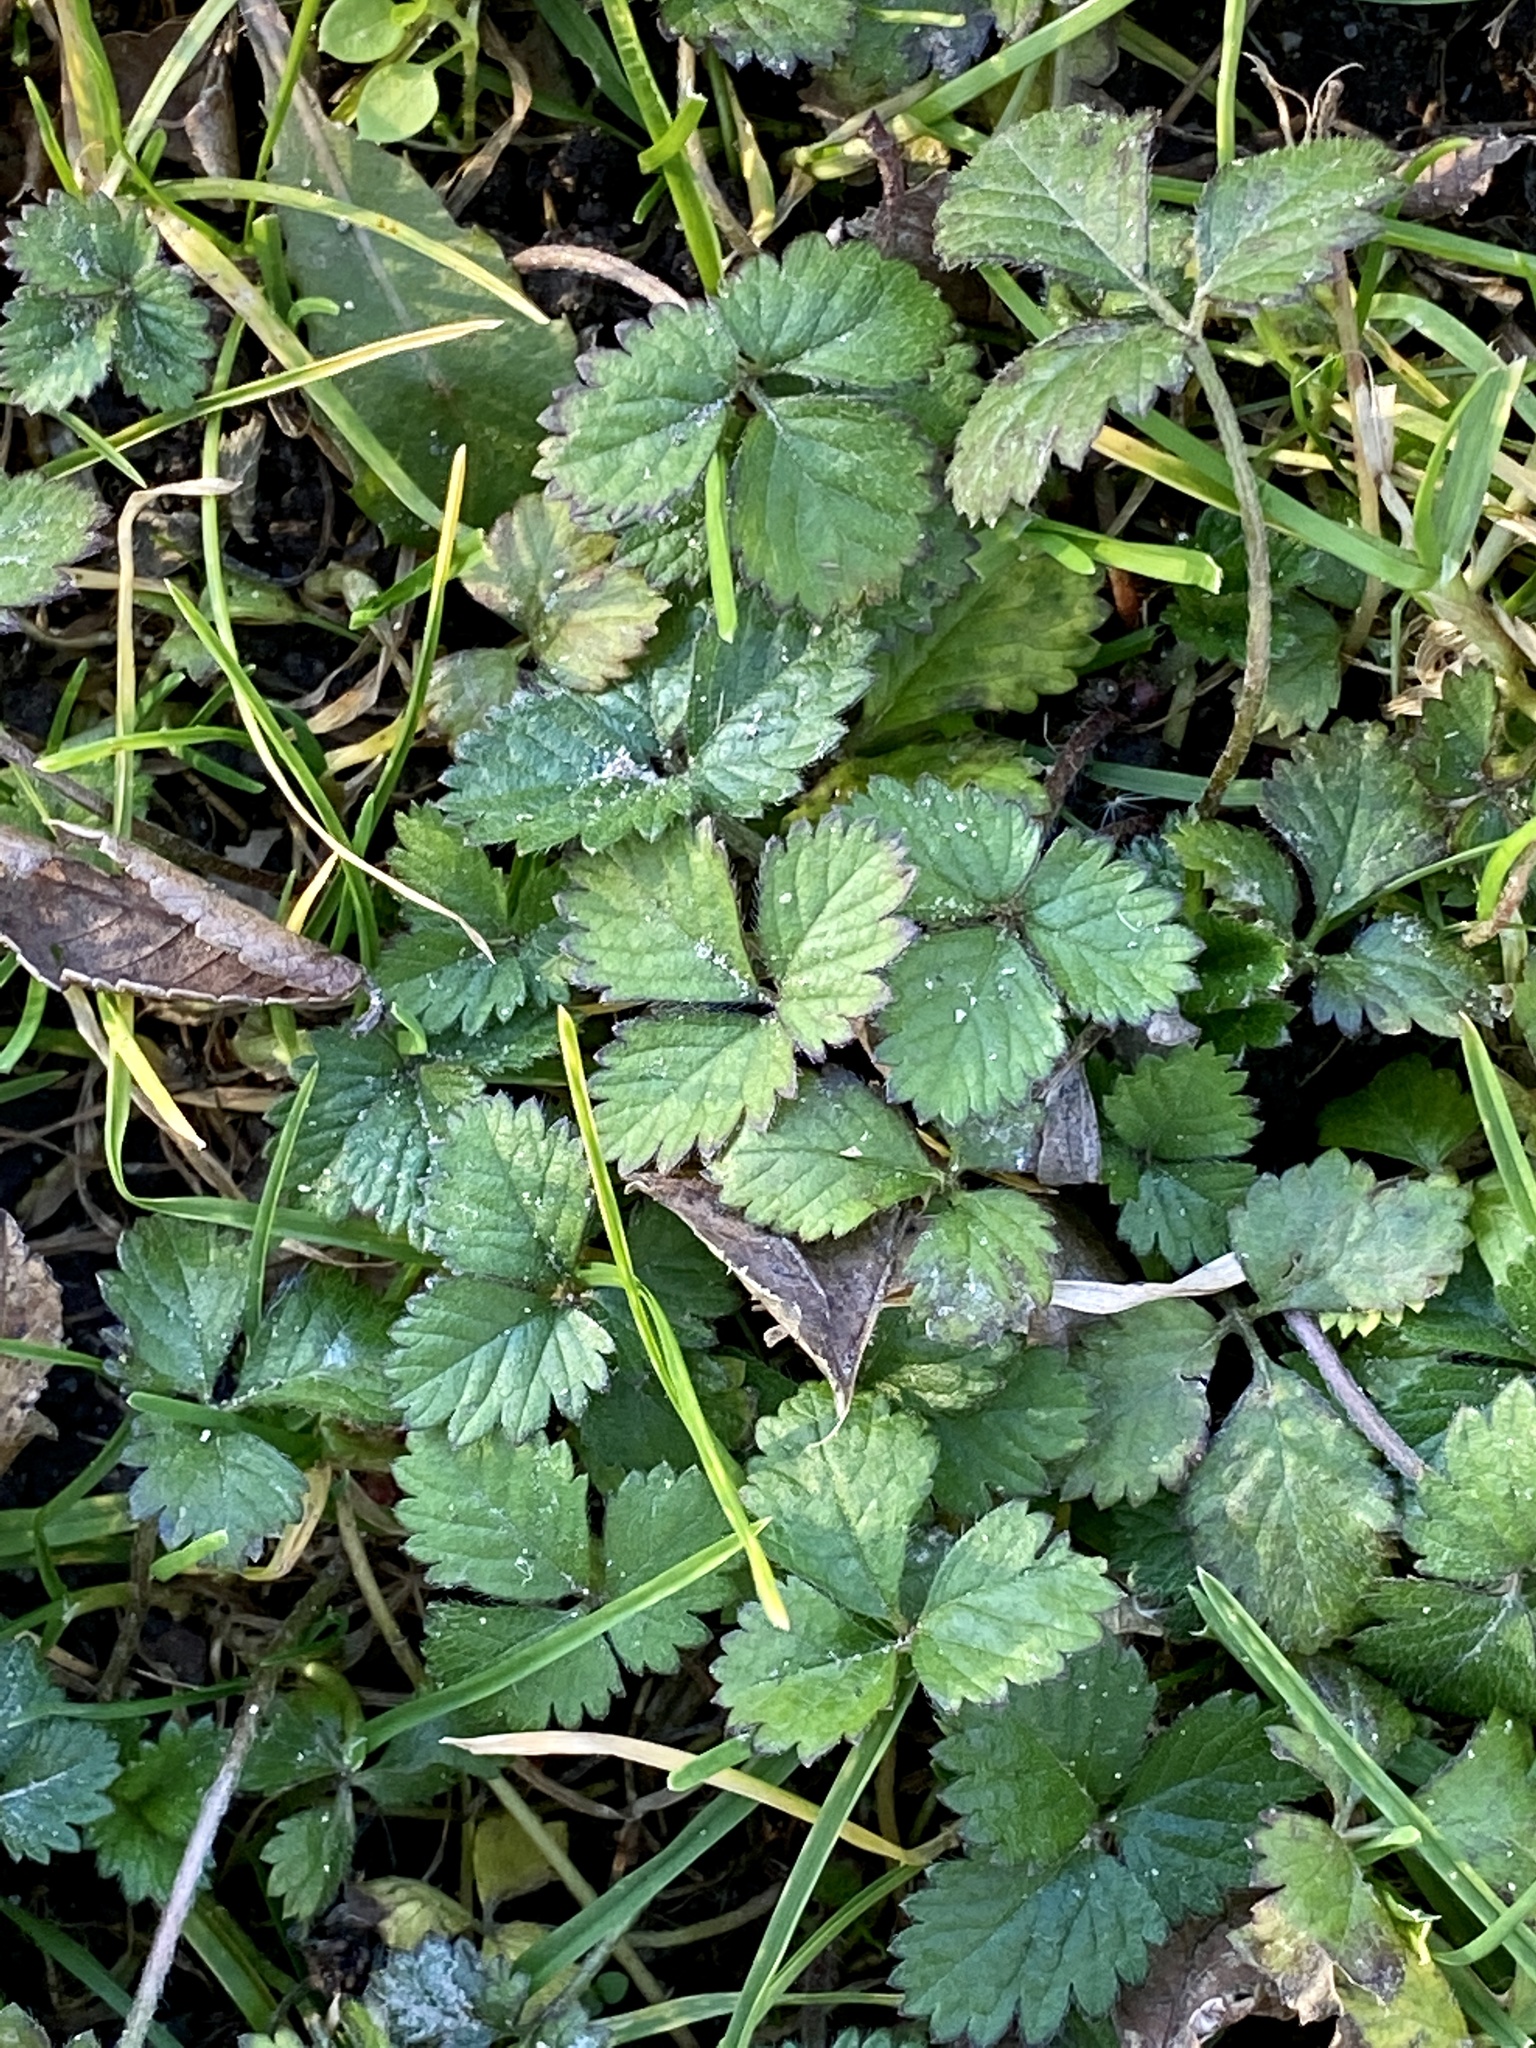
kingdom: Plantae
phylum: Tracheophyta
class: Magnoliopsida
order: Rosales
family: Rosaceae
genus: Potentilla
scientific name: Potentilla indica
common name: Yellow-flowered strawberry
